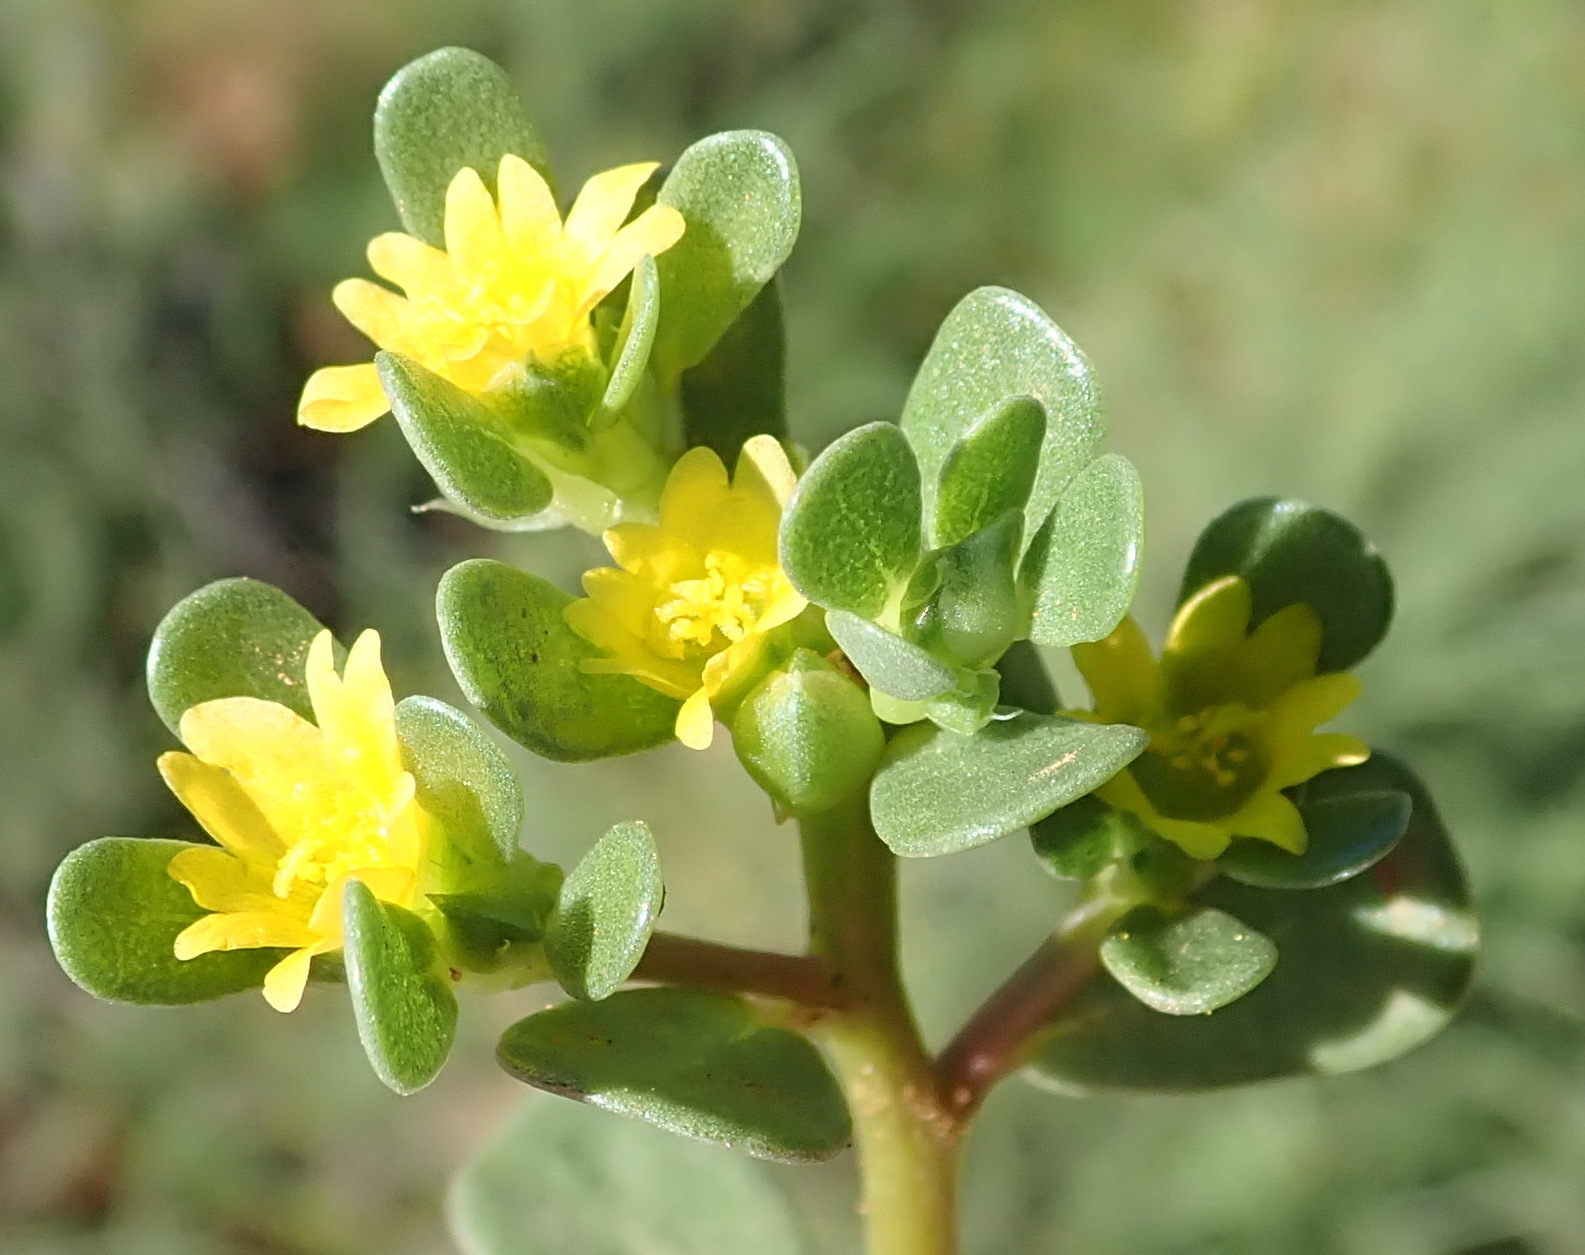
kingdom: Plantae
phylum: Tracheophyta
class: Magnoliopsida
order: Caryophyllales
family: Portulacaceae
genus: Portulaca
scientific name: Portulaca oleracea
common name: Common purslane
